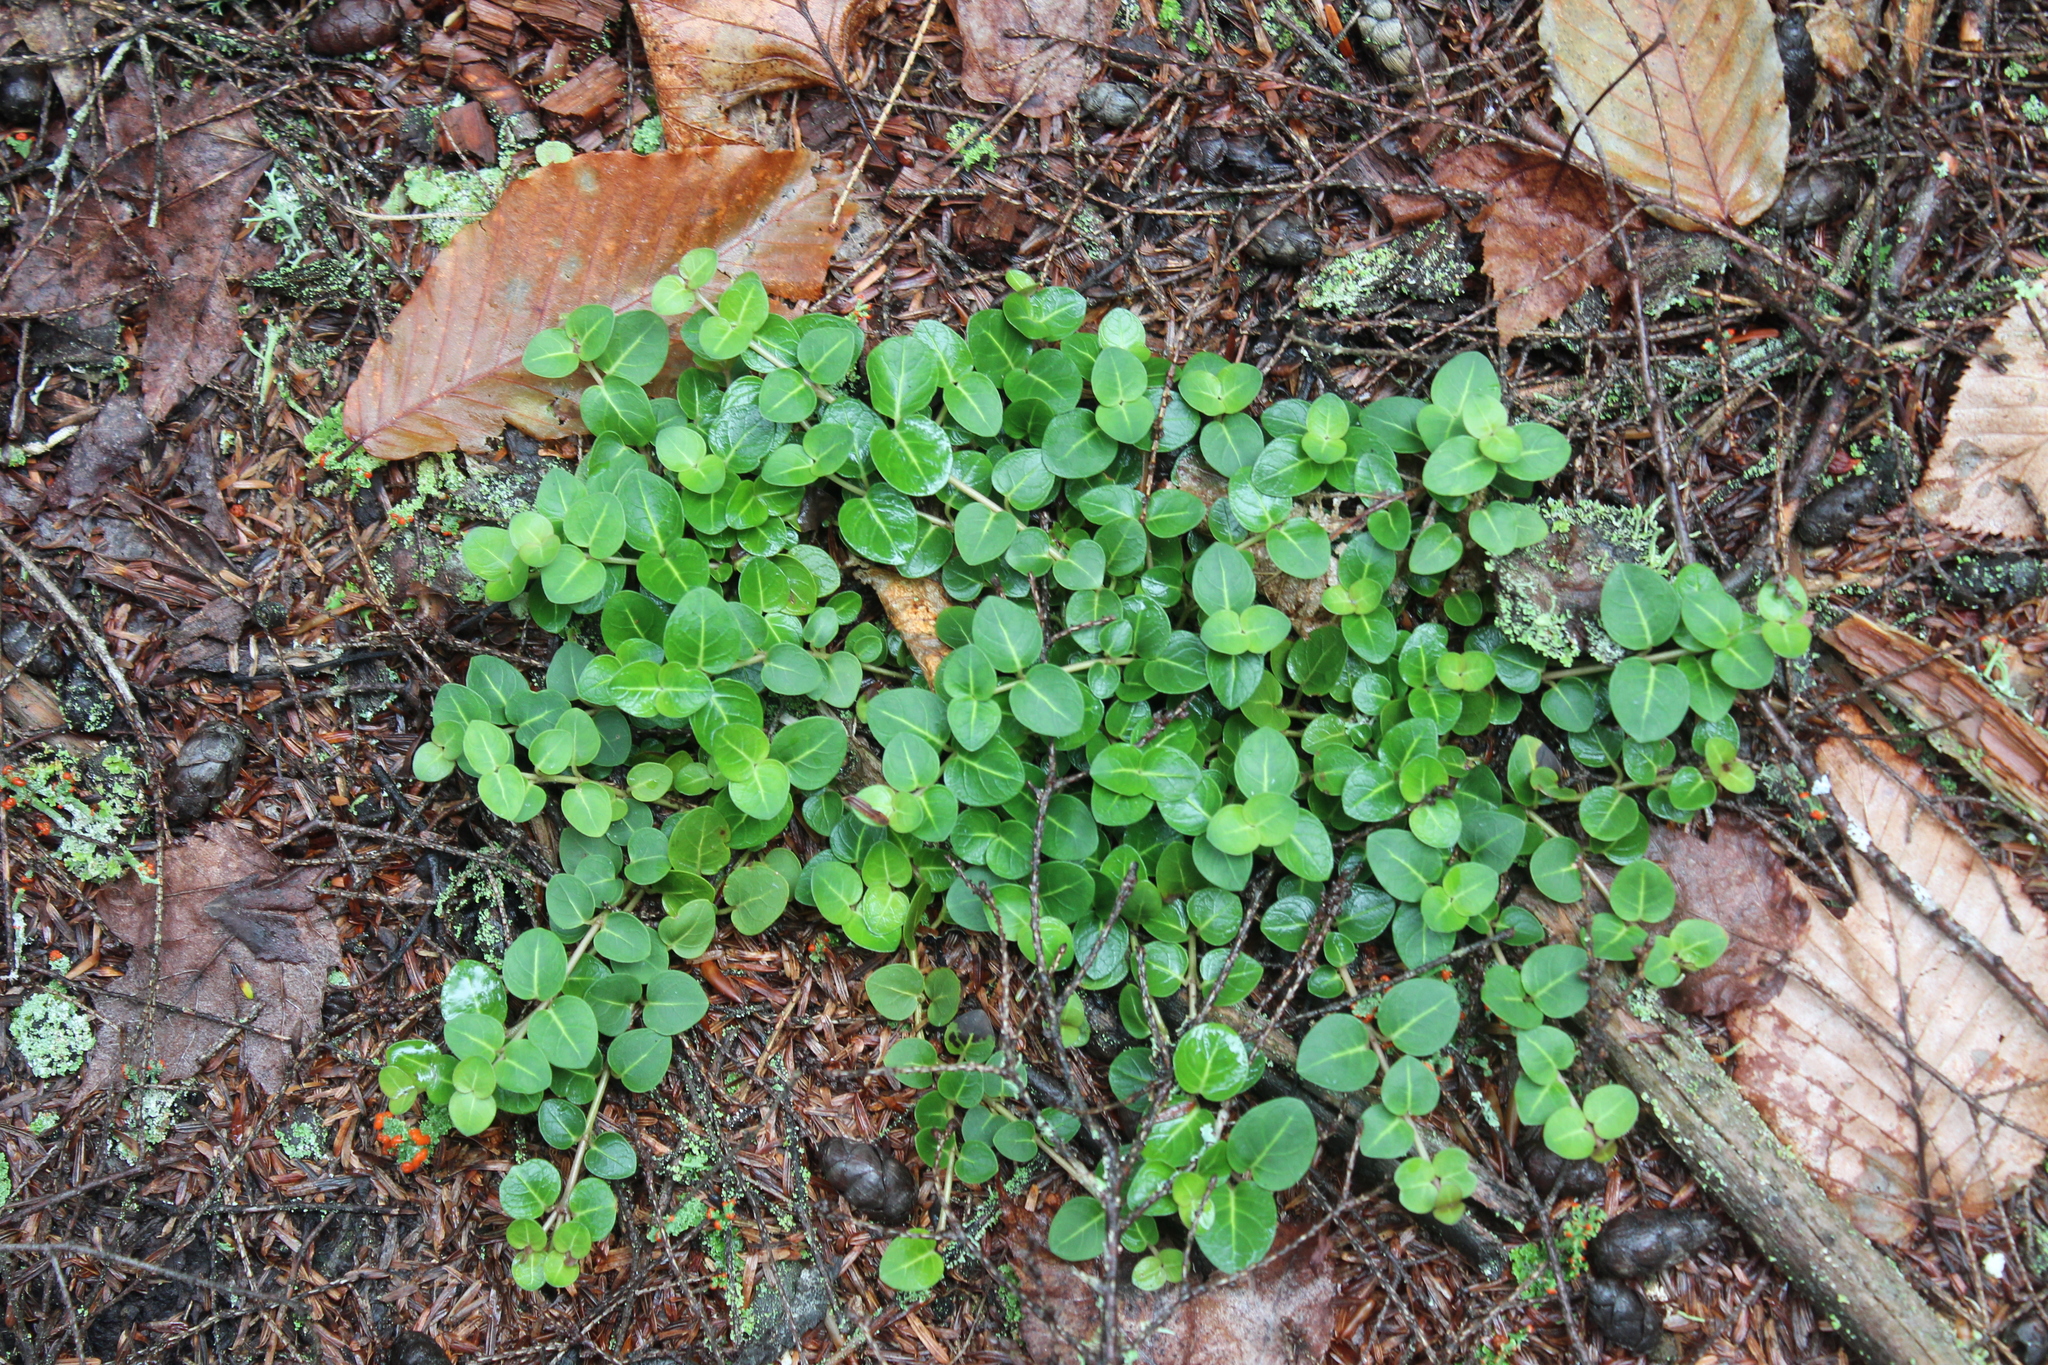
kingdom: Plantae
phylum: Tracheophyta
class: Magnoliopsida
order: Gentianales
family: Rubiaceae
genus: Mitchella
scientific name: Mitchella repens
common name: Partridge-berry
